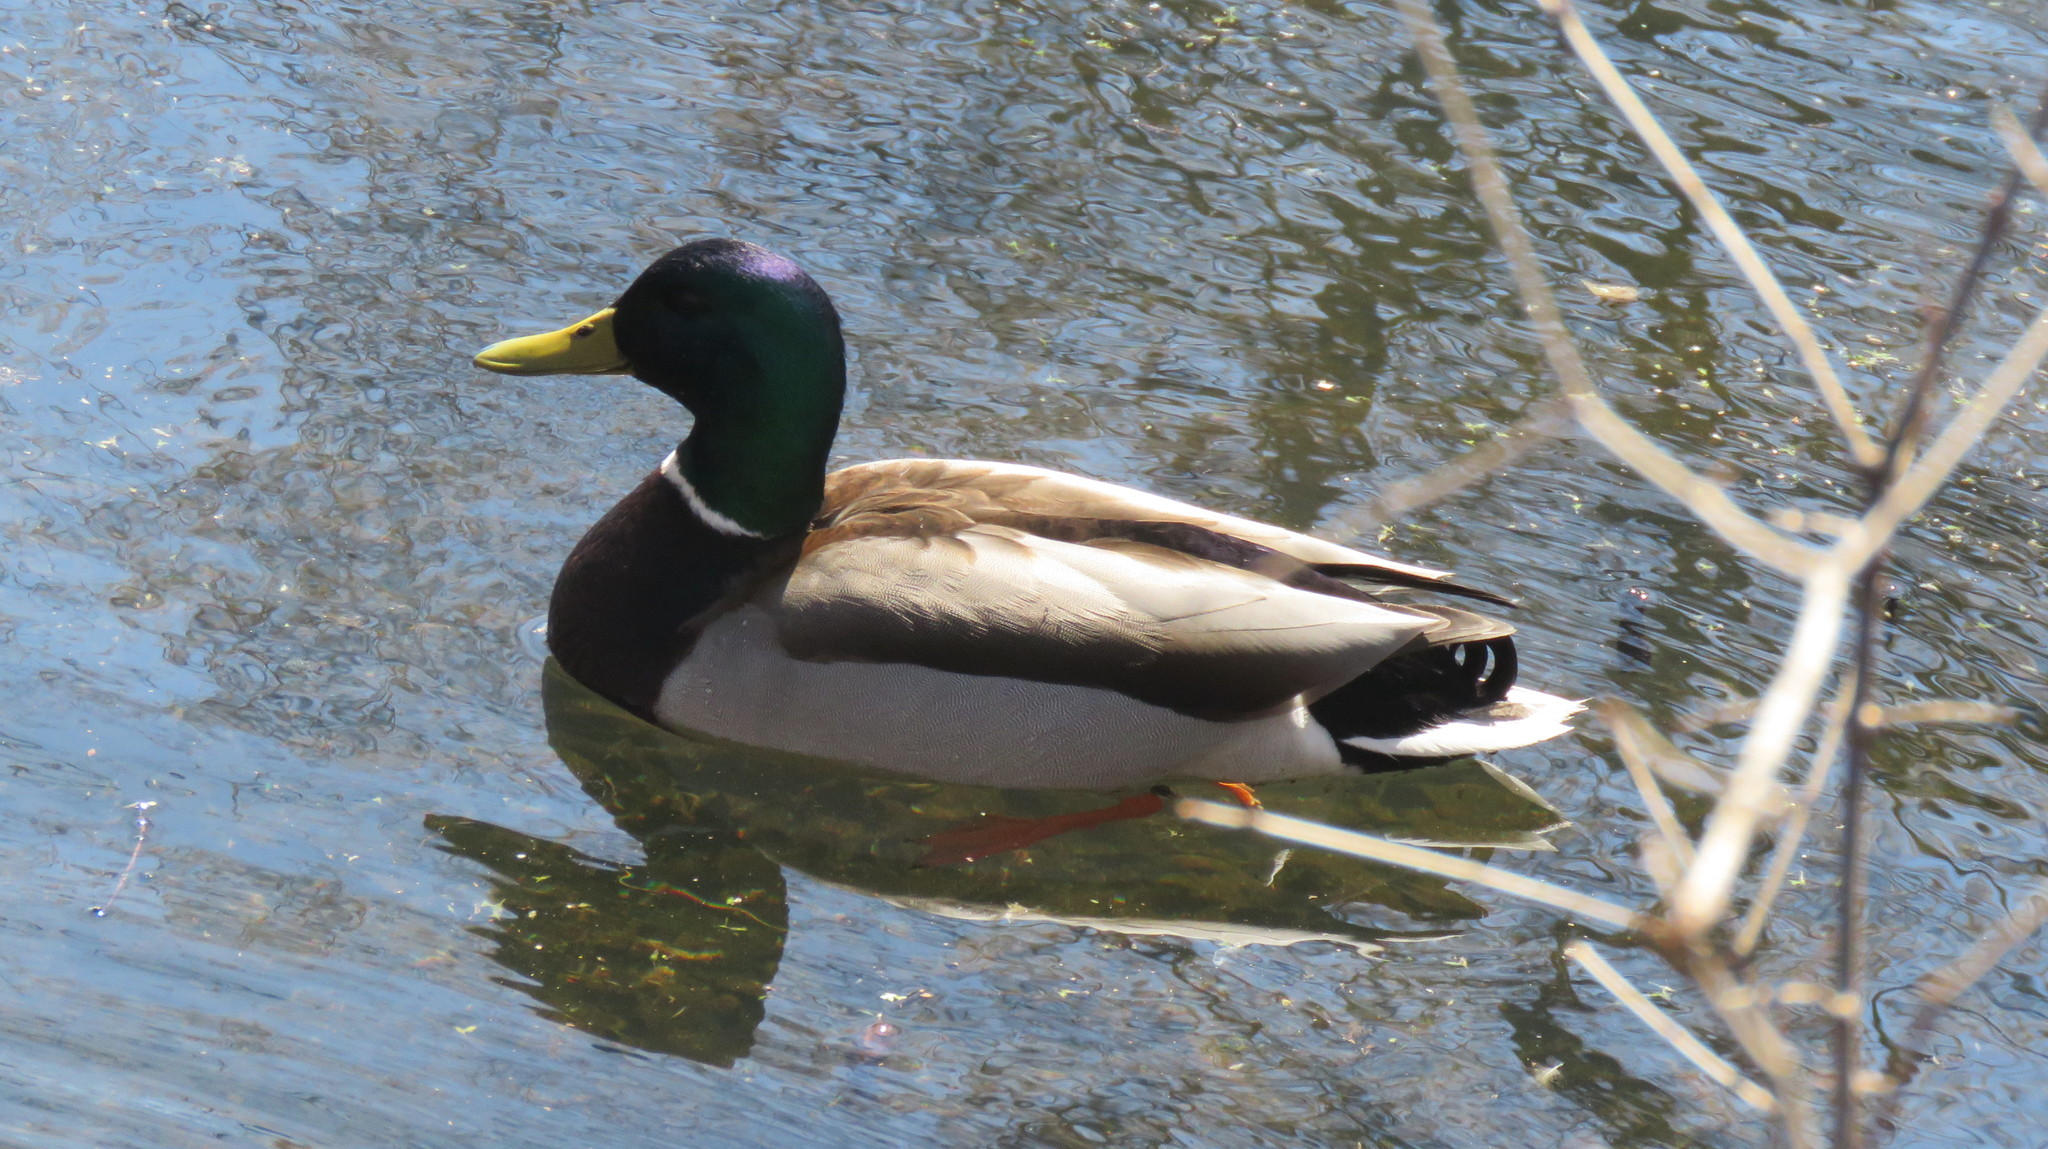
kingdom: Animalia
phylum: Chordata
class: Aves
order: Anseriformes
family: Anatidae
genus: Anas
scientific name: Anas platyrhynchos
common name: Mallard
